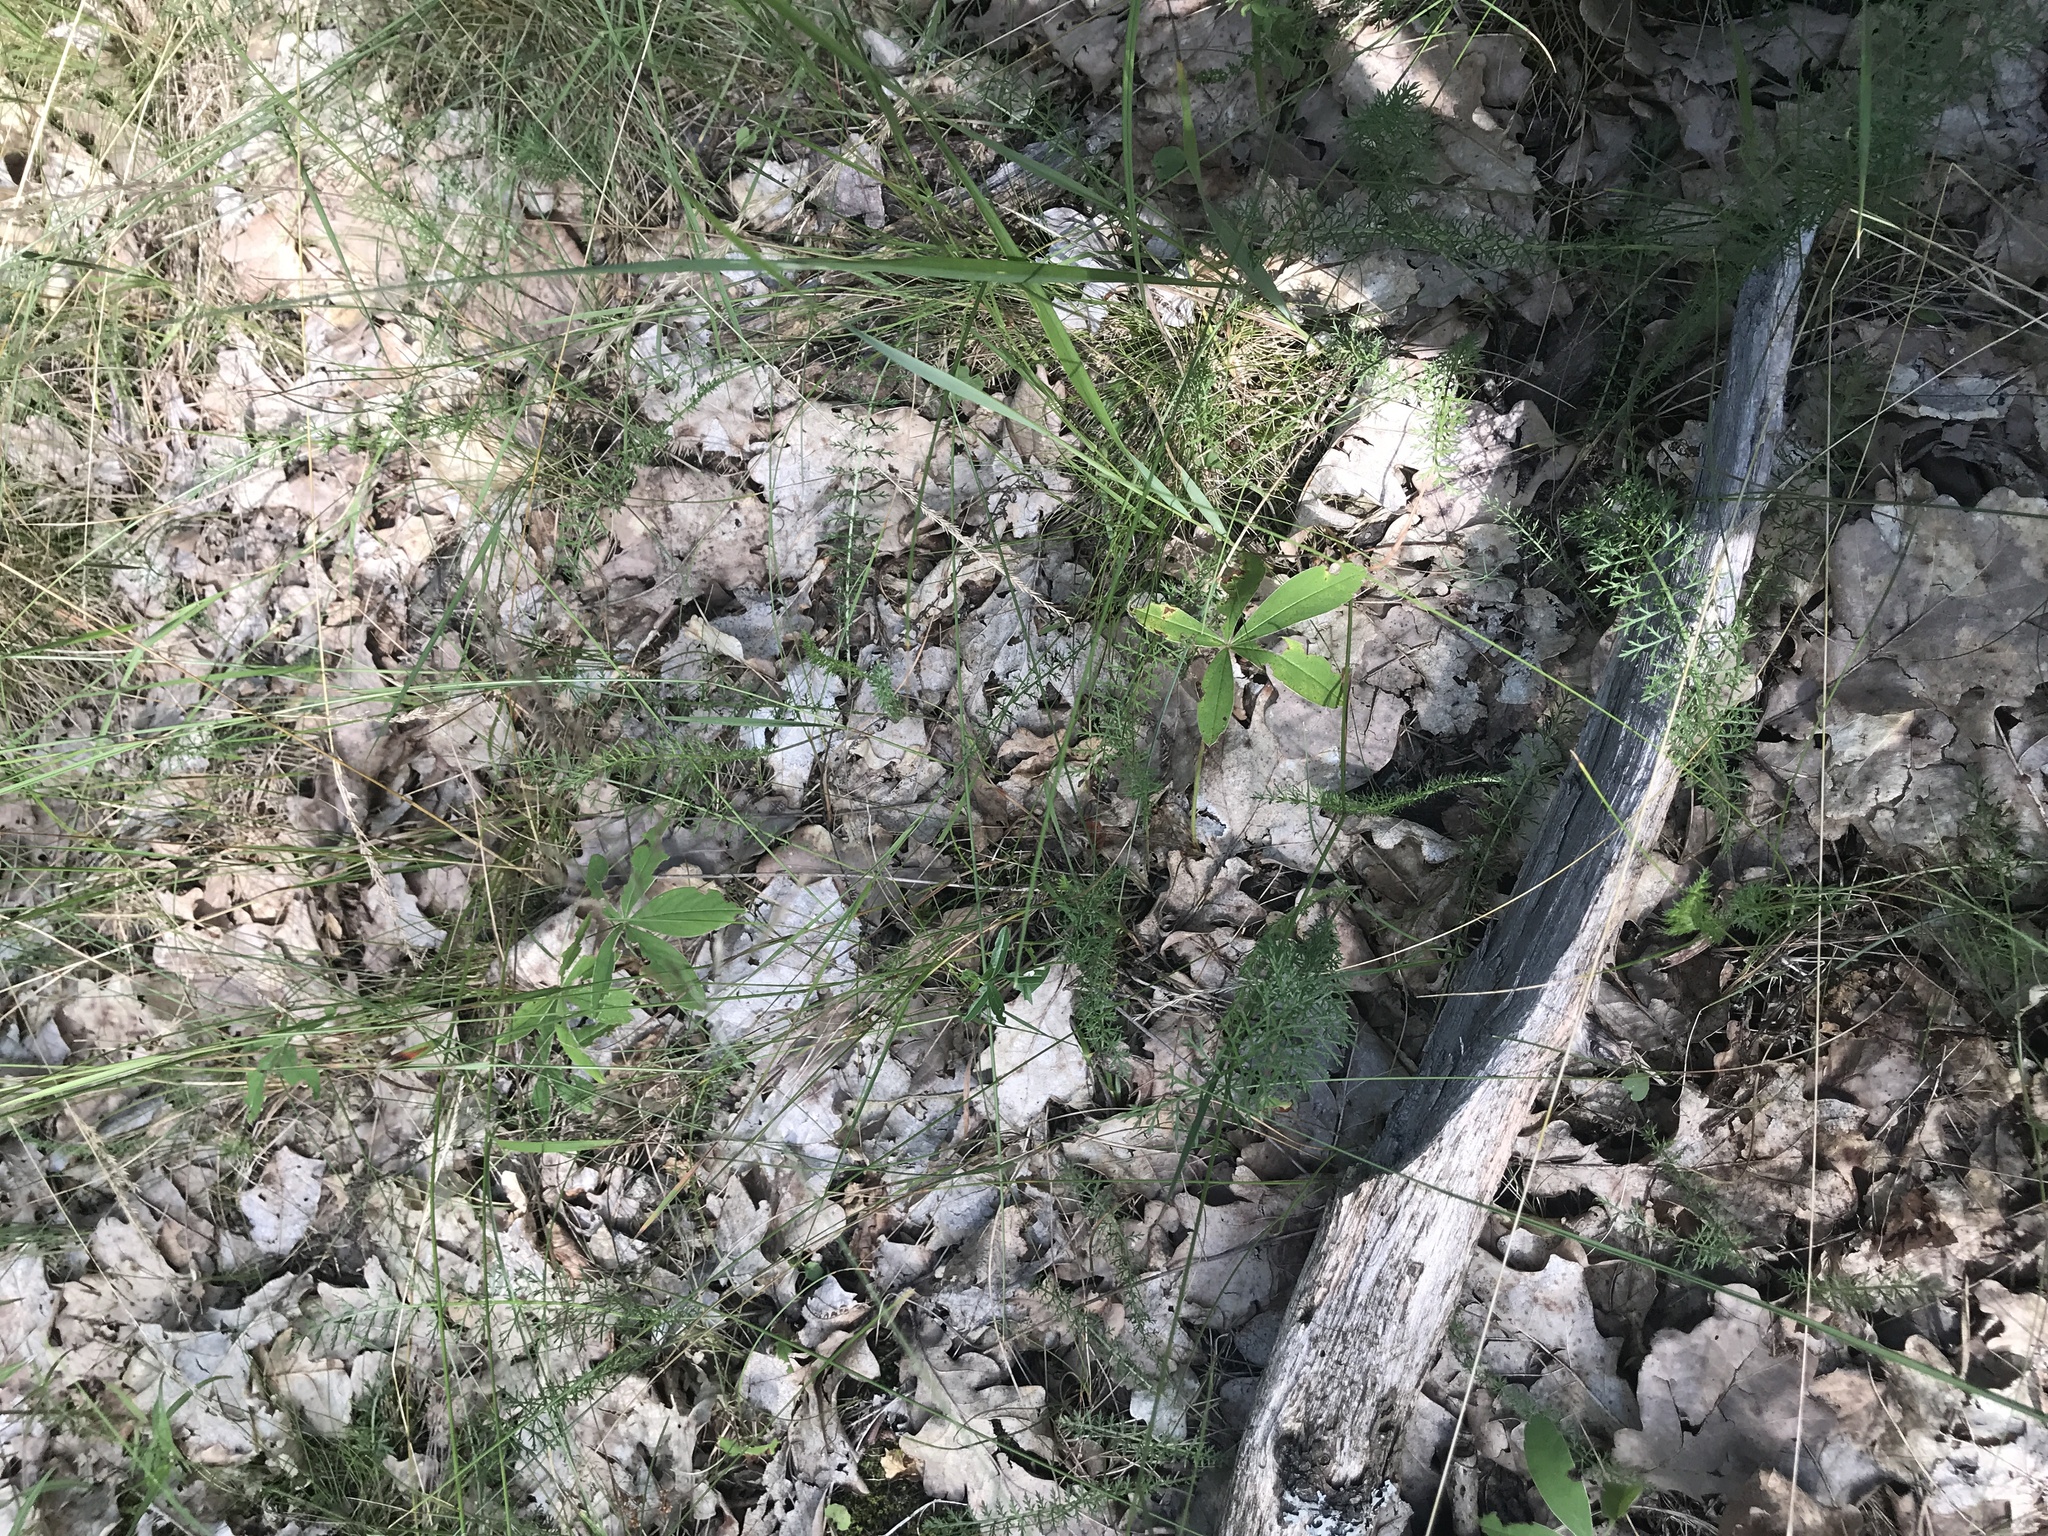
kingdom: Plantae
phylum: Tracheophyta
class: Magnoliopsida
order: Rosales
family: Rosaceae
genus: Potentilla
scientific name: Potentilla alba
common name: White cinquefoil
